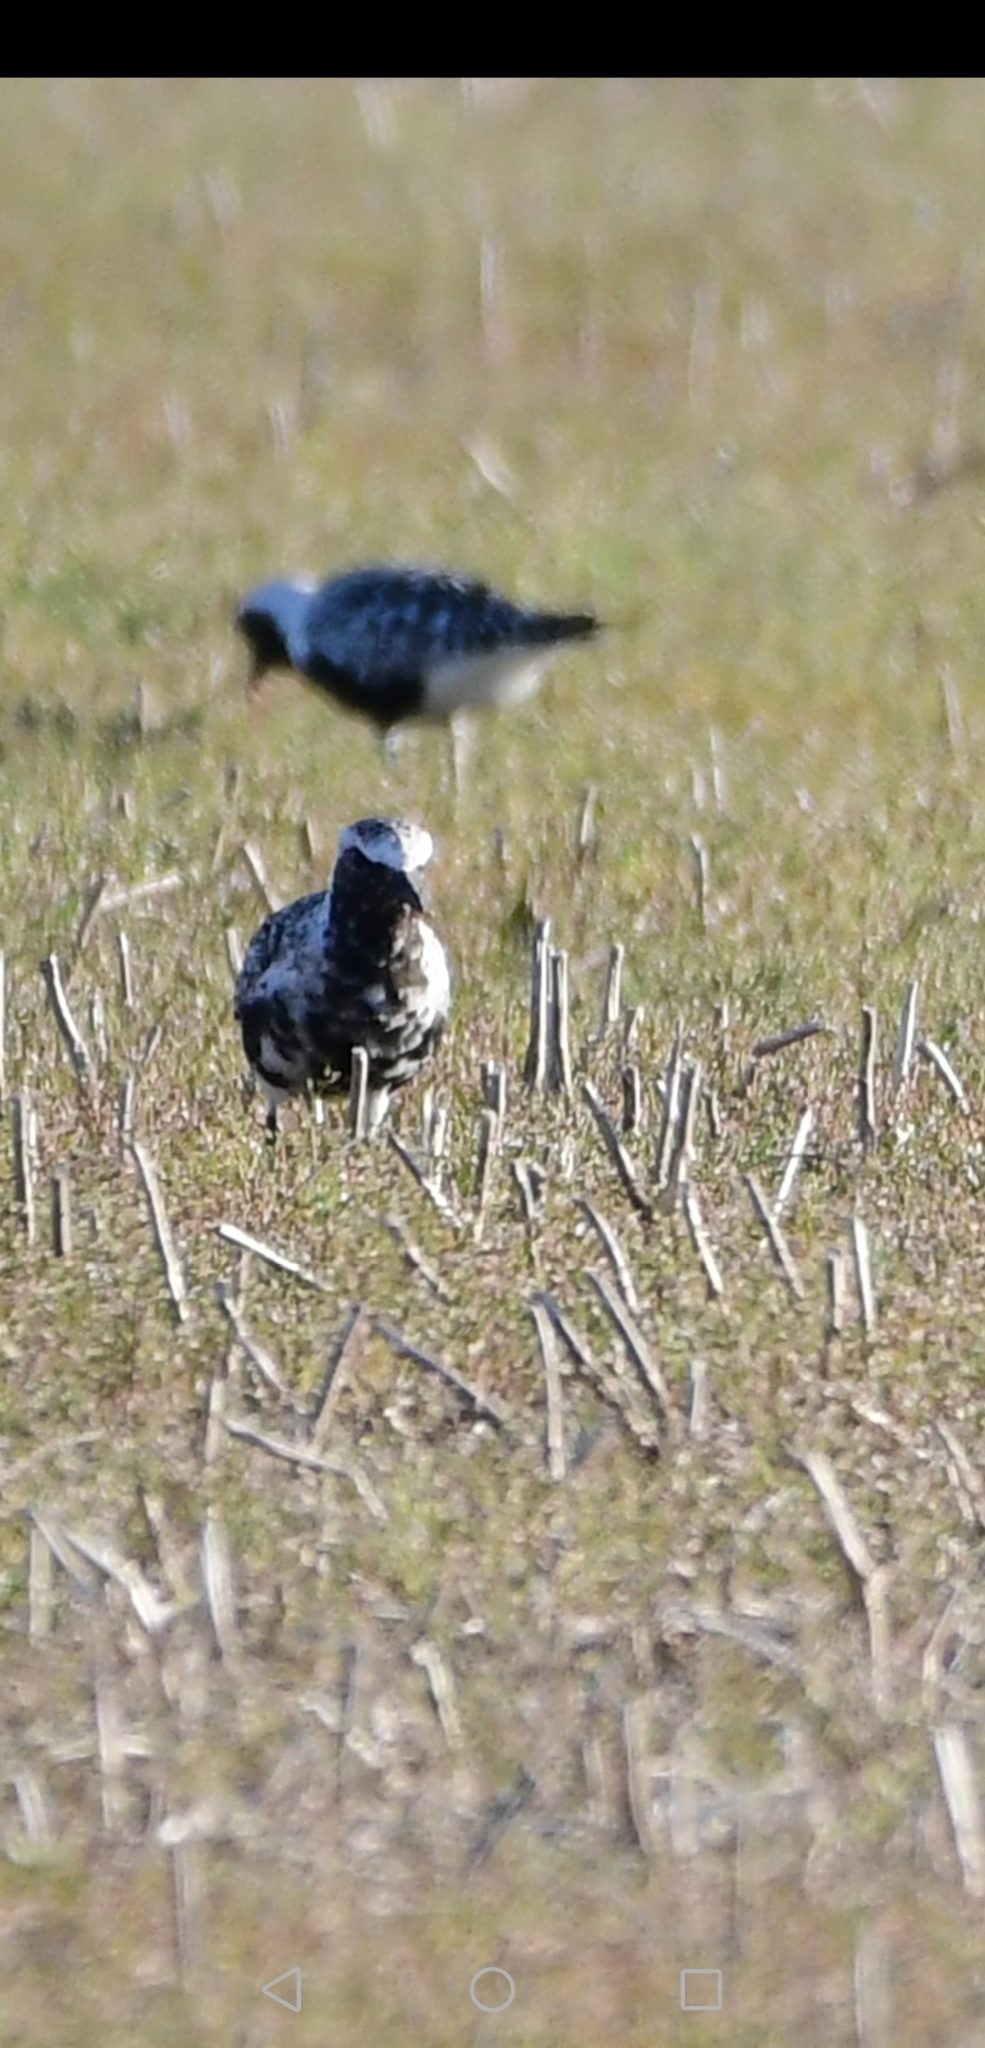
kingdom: Animalia
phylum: Chordata
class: Aves
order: Charadriiformes
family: Charadriidae
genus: Pluvialis
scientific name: Pluvialis squatarola
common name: Grey plover
